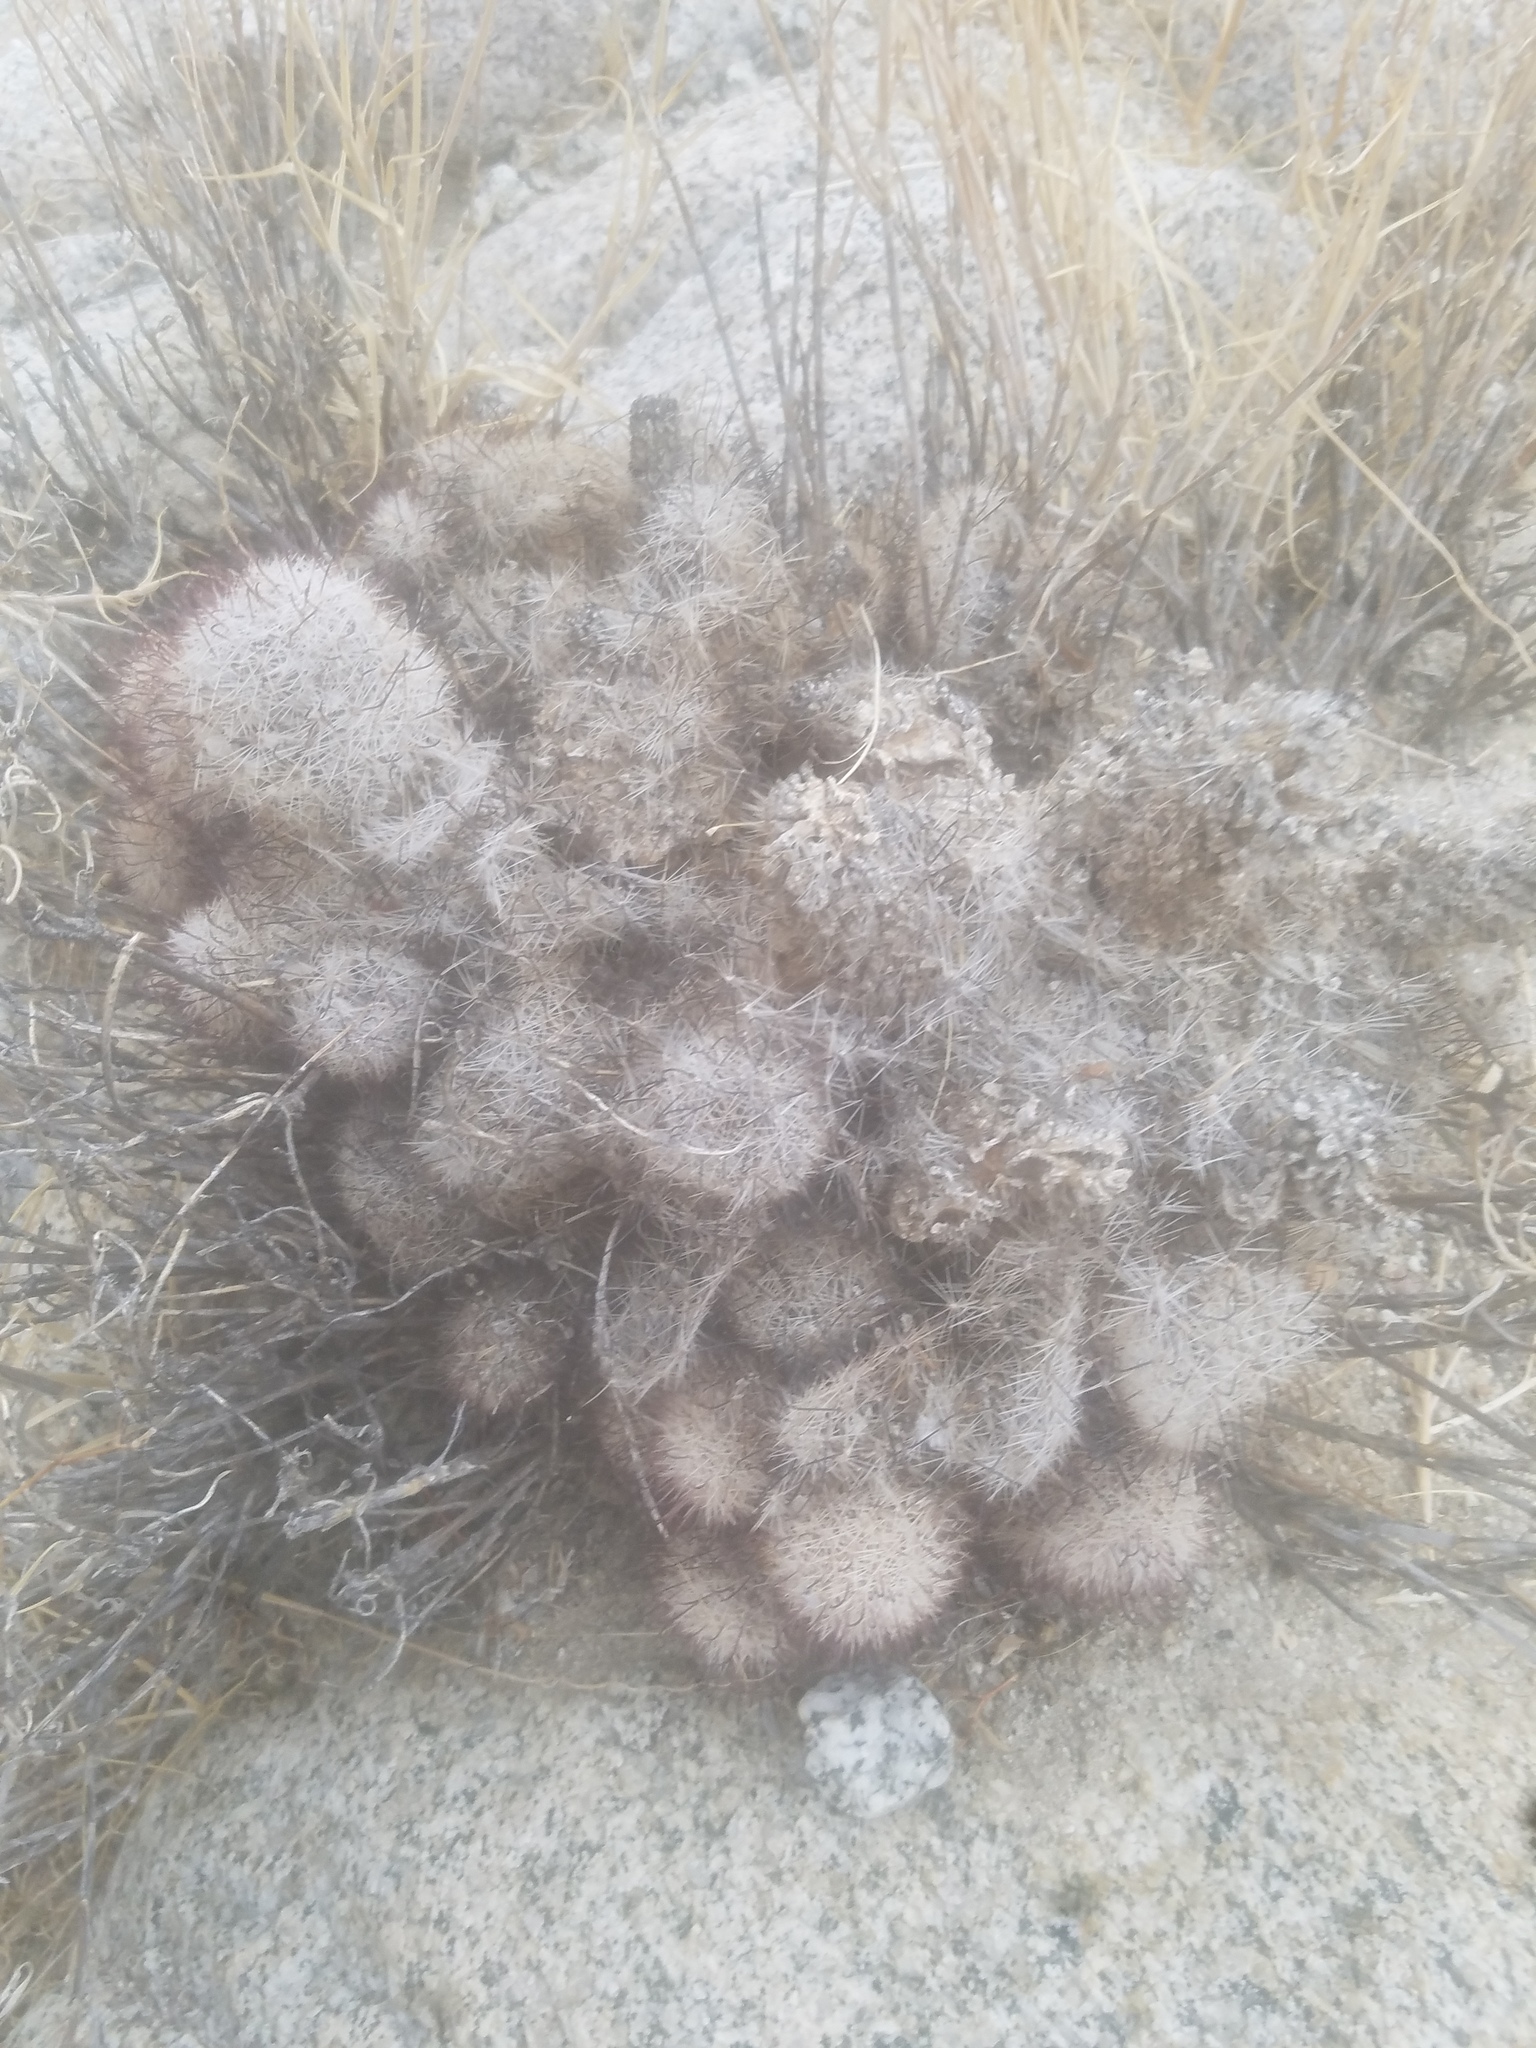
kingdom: Plantae
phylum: Tracheophyta
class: Magnoliopsida
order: Caryophyllales
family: Cactaceae
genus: Cochemiea
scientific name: Cochemiea dioica
